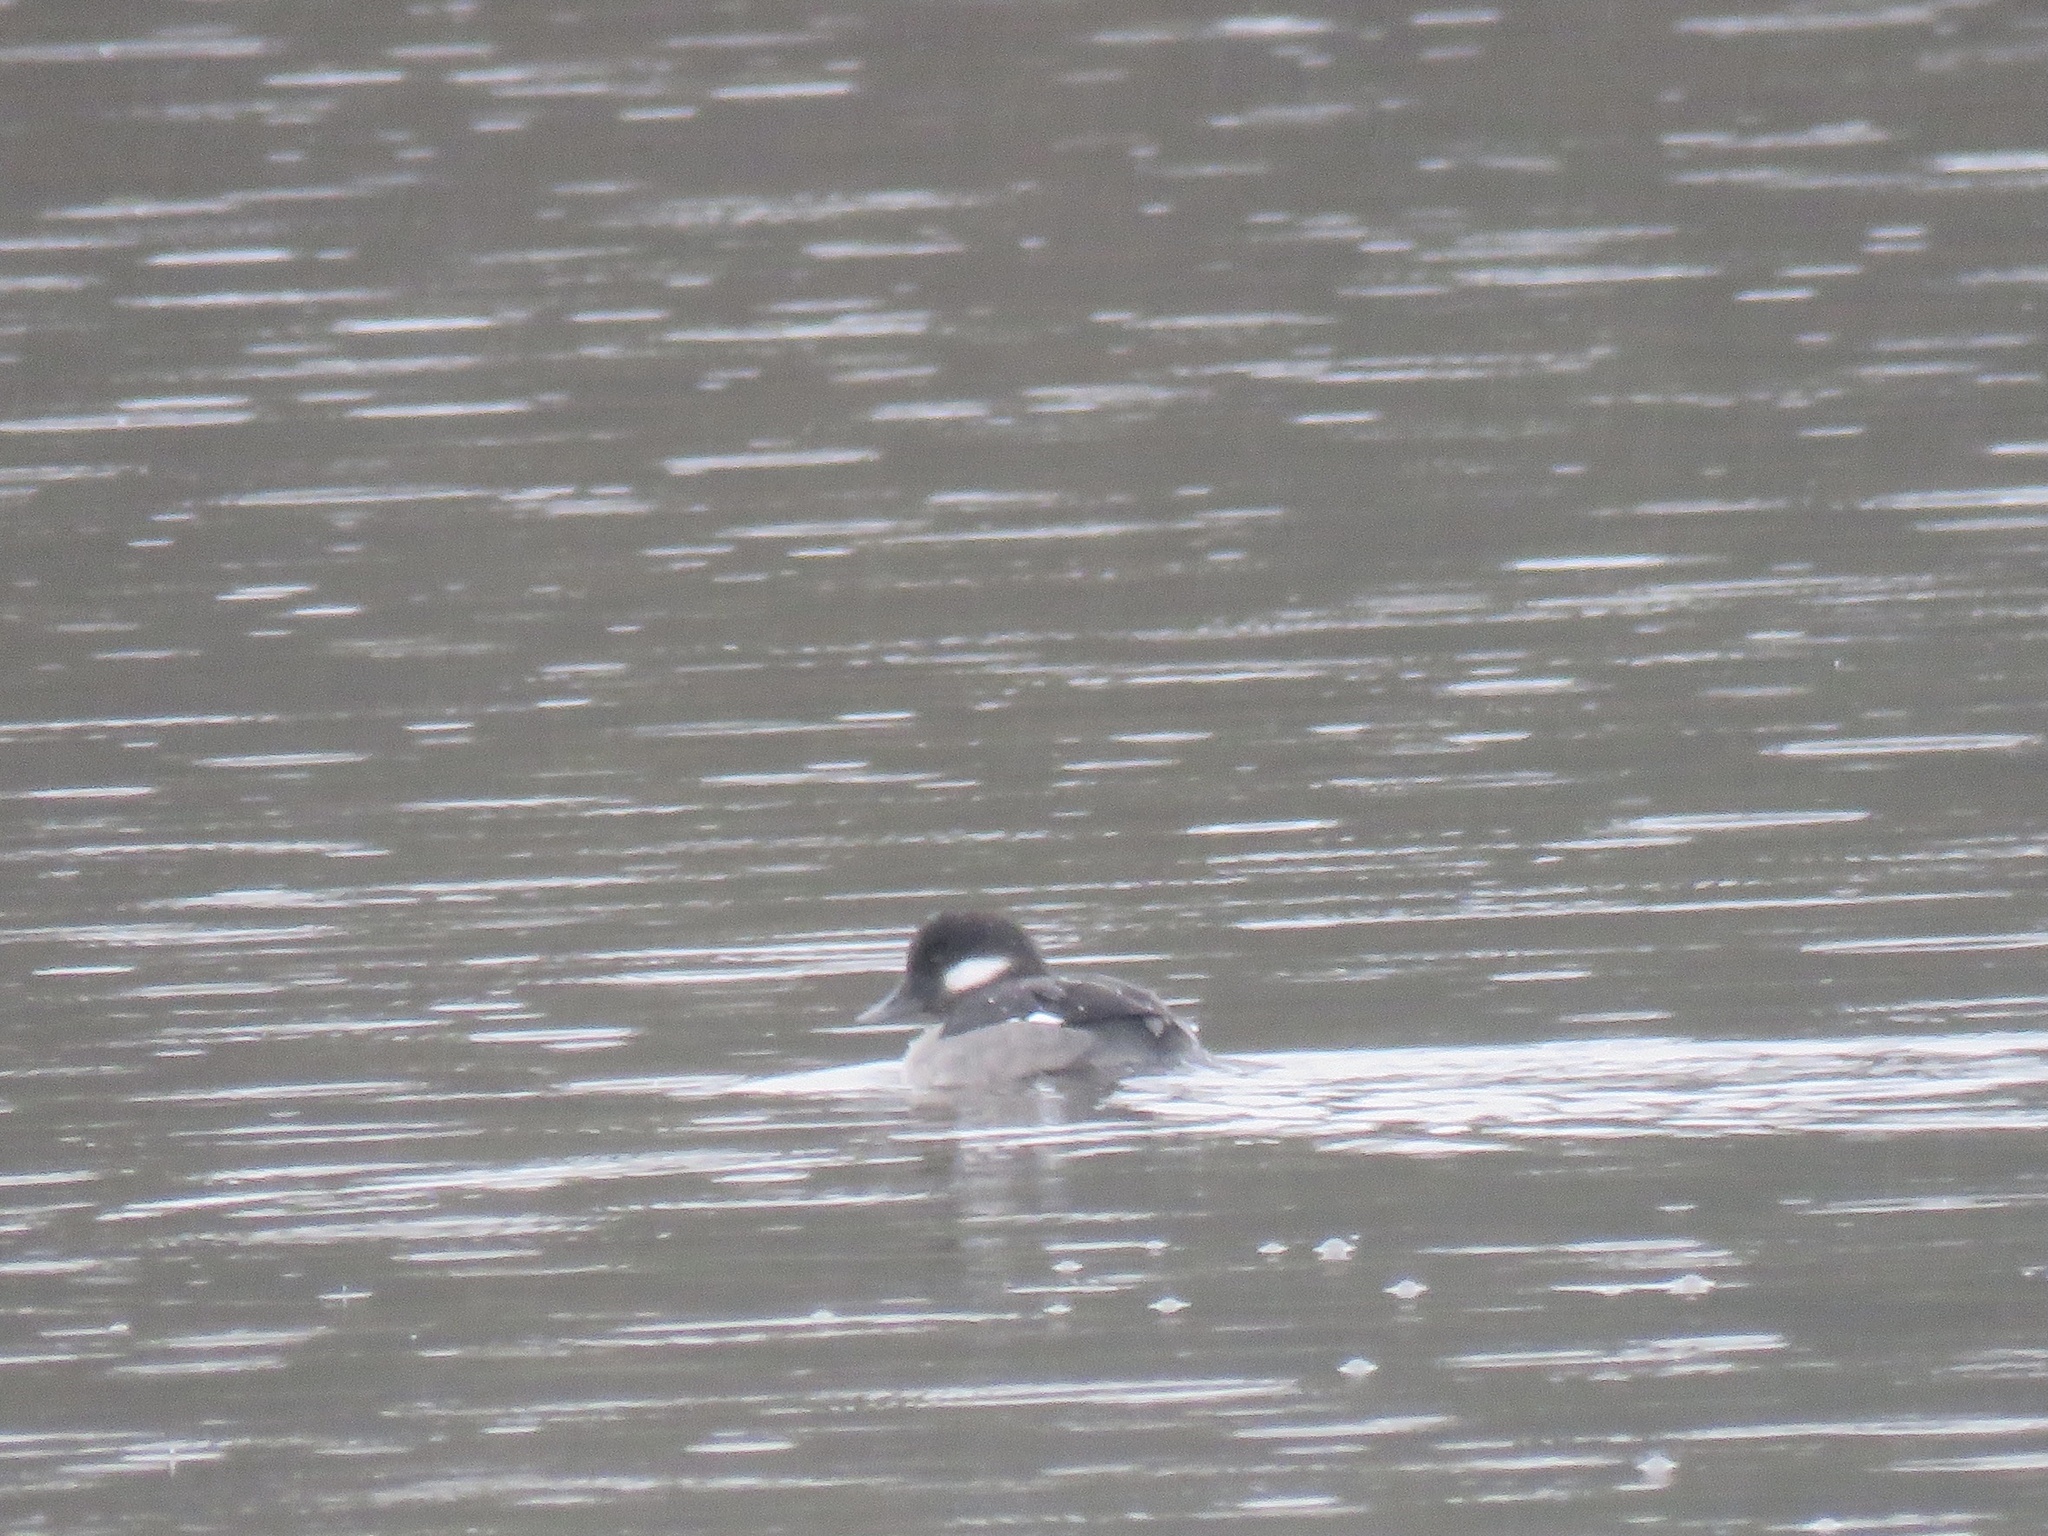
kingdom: Animalia
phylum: Chordata
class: Aves
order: Anseriformes
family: Anatidae
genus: Bucephala
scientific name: Bucephala albeola
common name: Bufflehead
